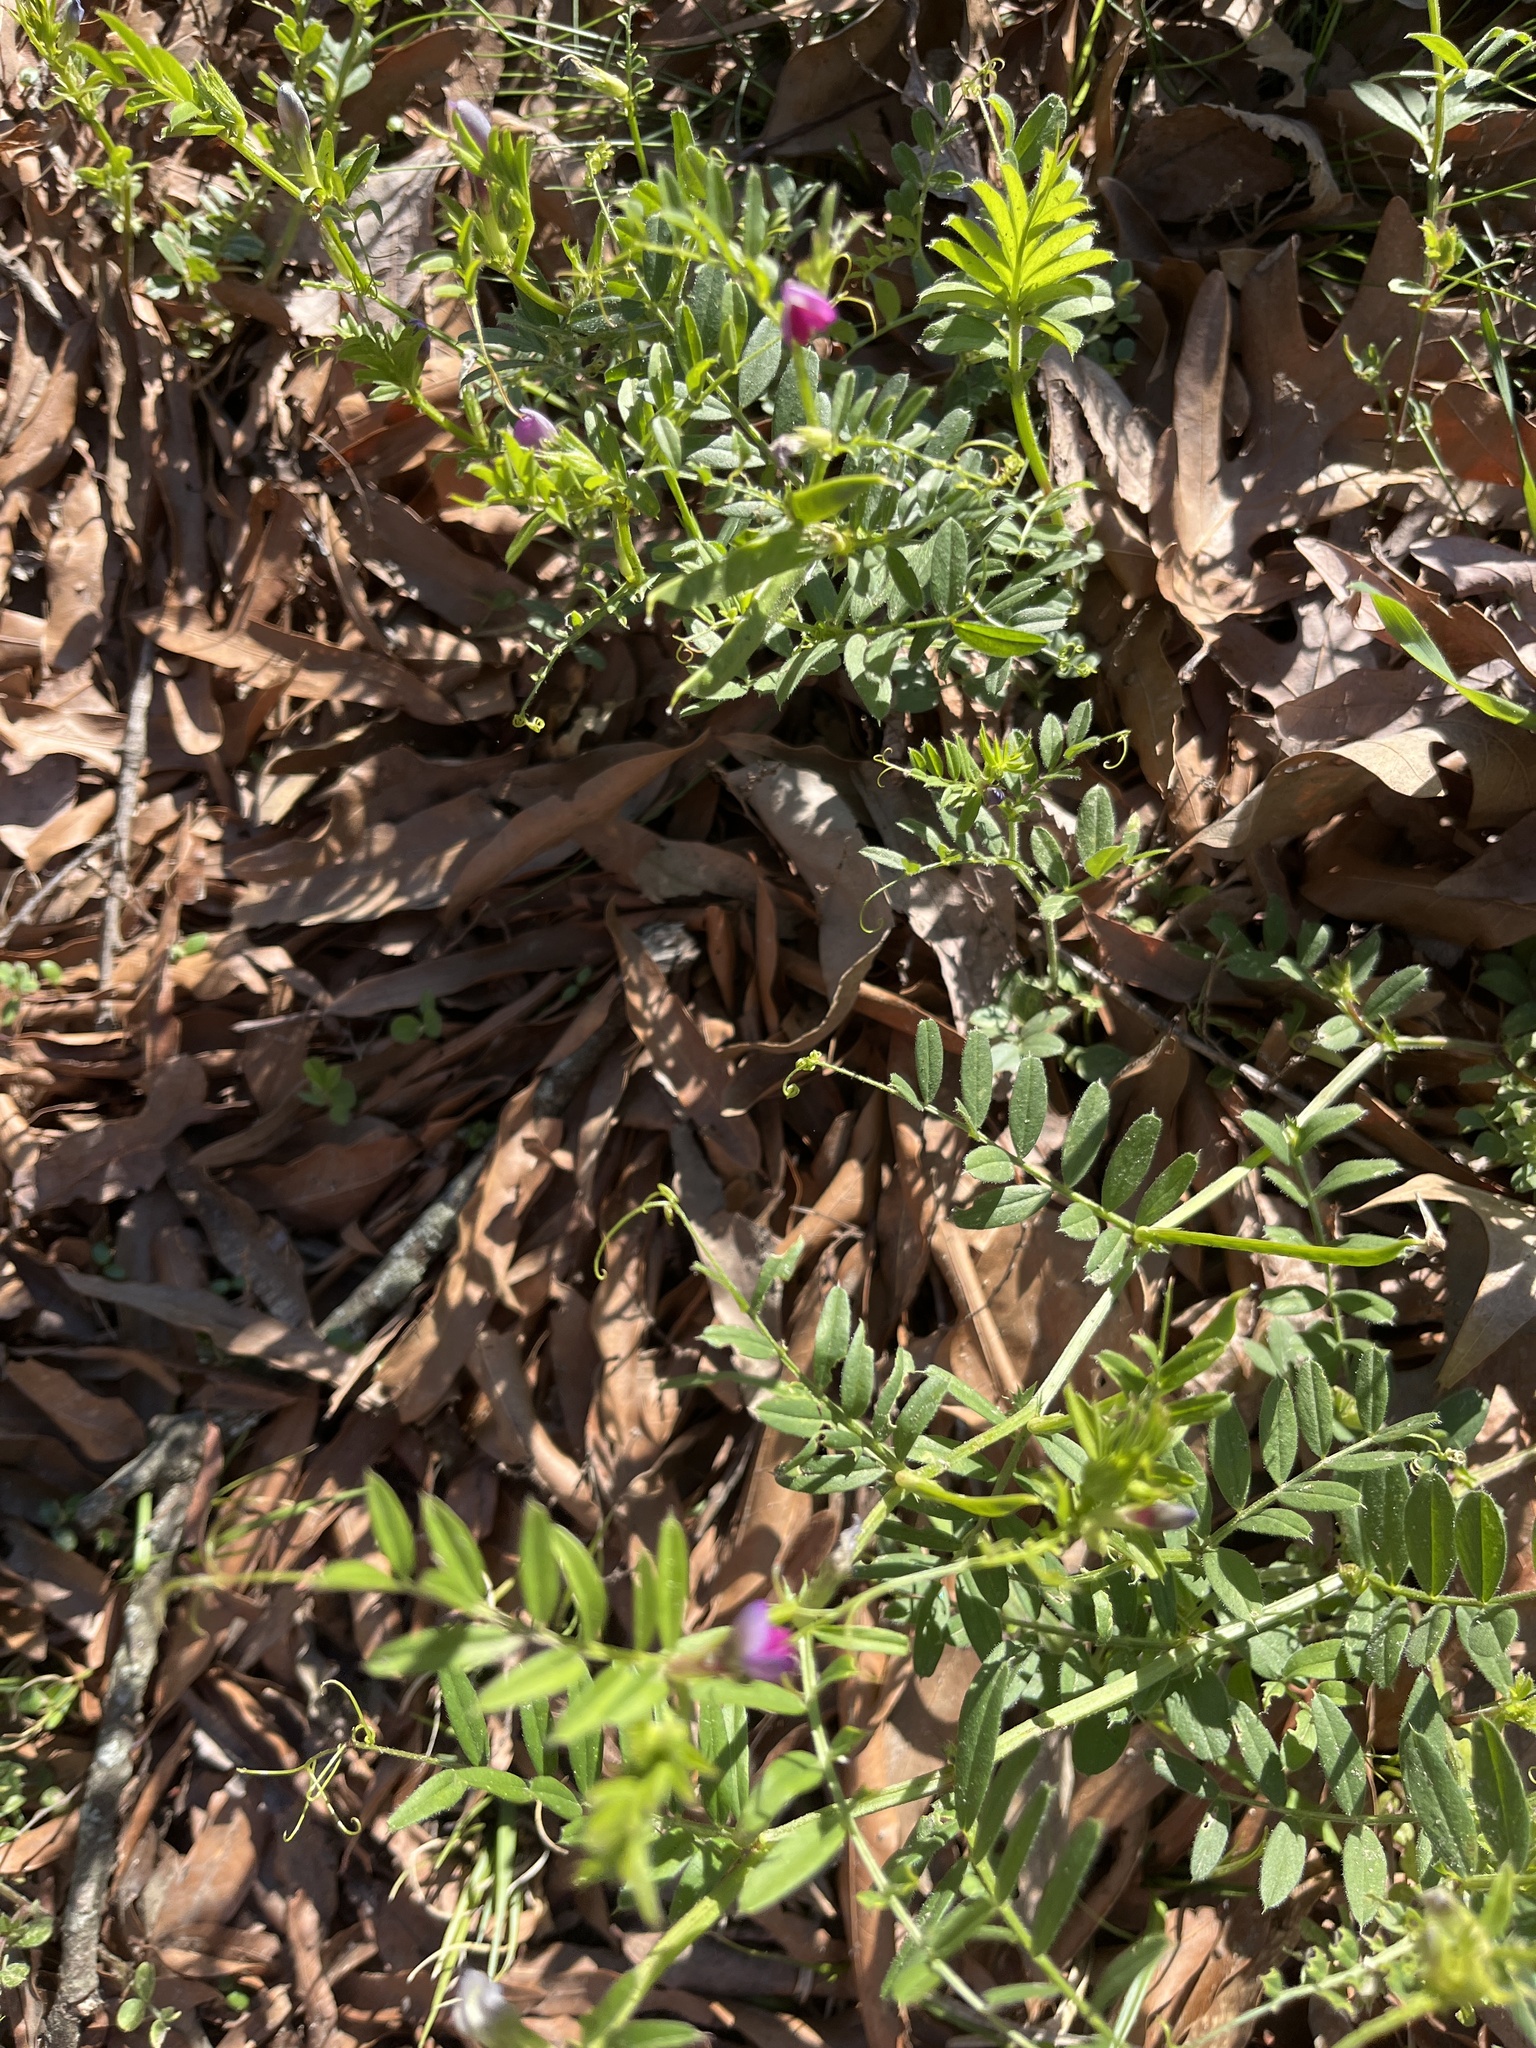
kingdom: Plantae
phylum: Tracheophyta
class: Magnoliopsida
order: Fabales
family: Fabaceae
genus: Vicia
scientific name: Vicia sativa
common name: Garden vetch
